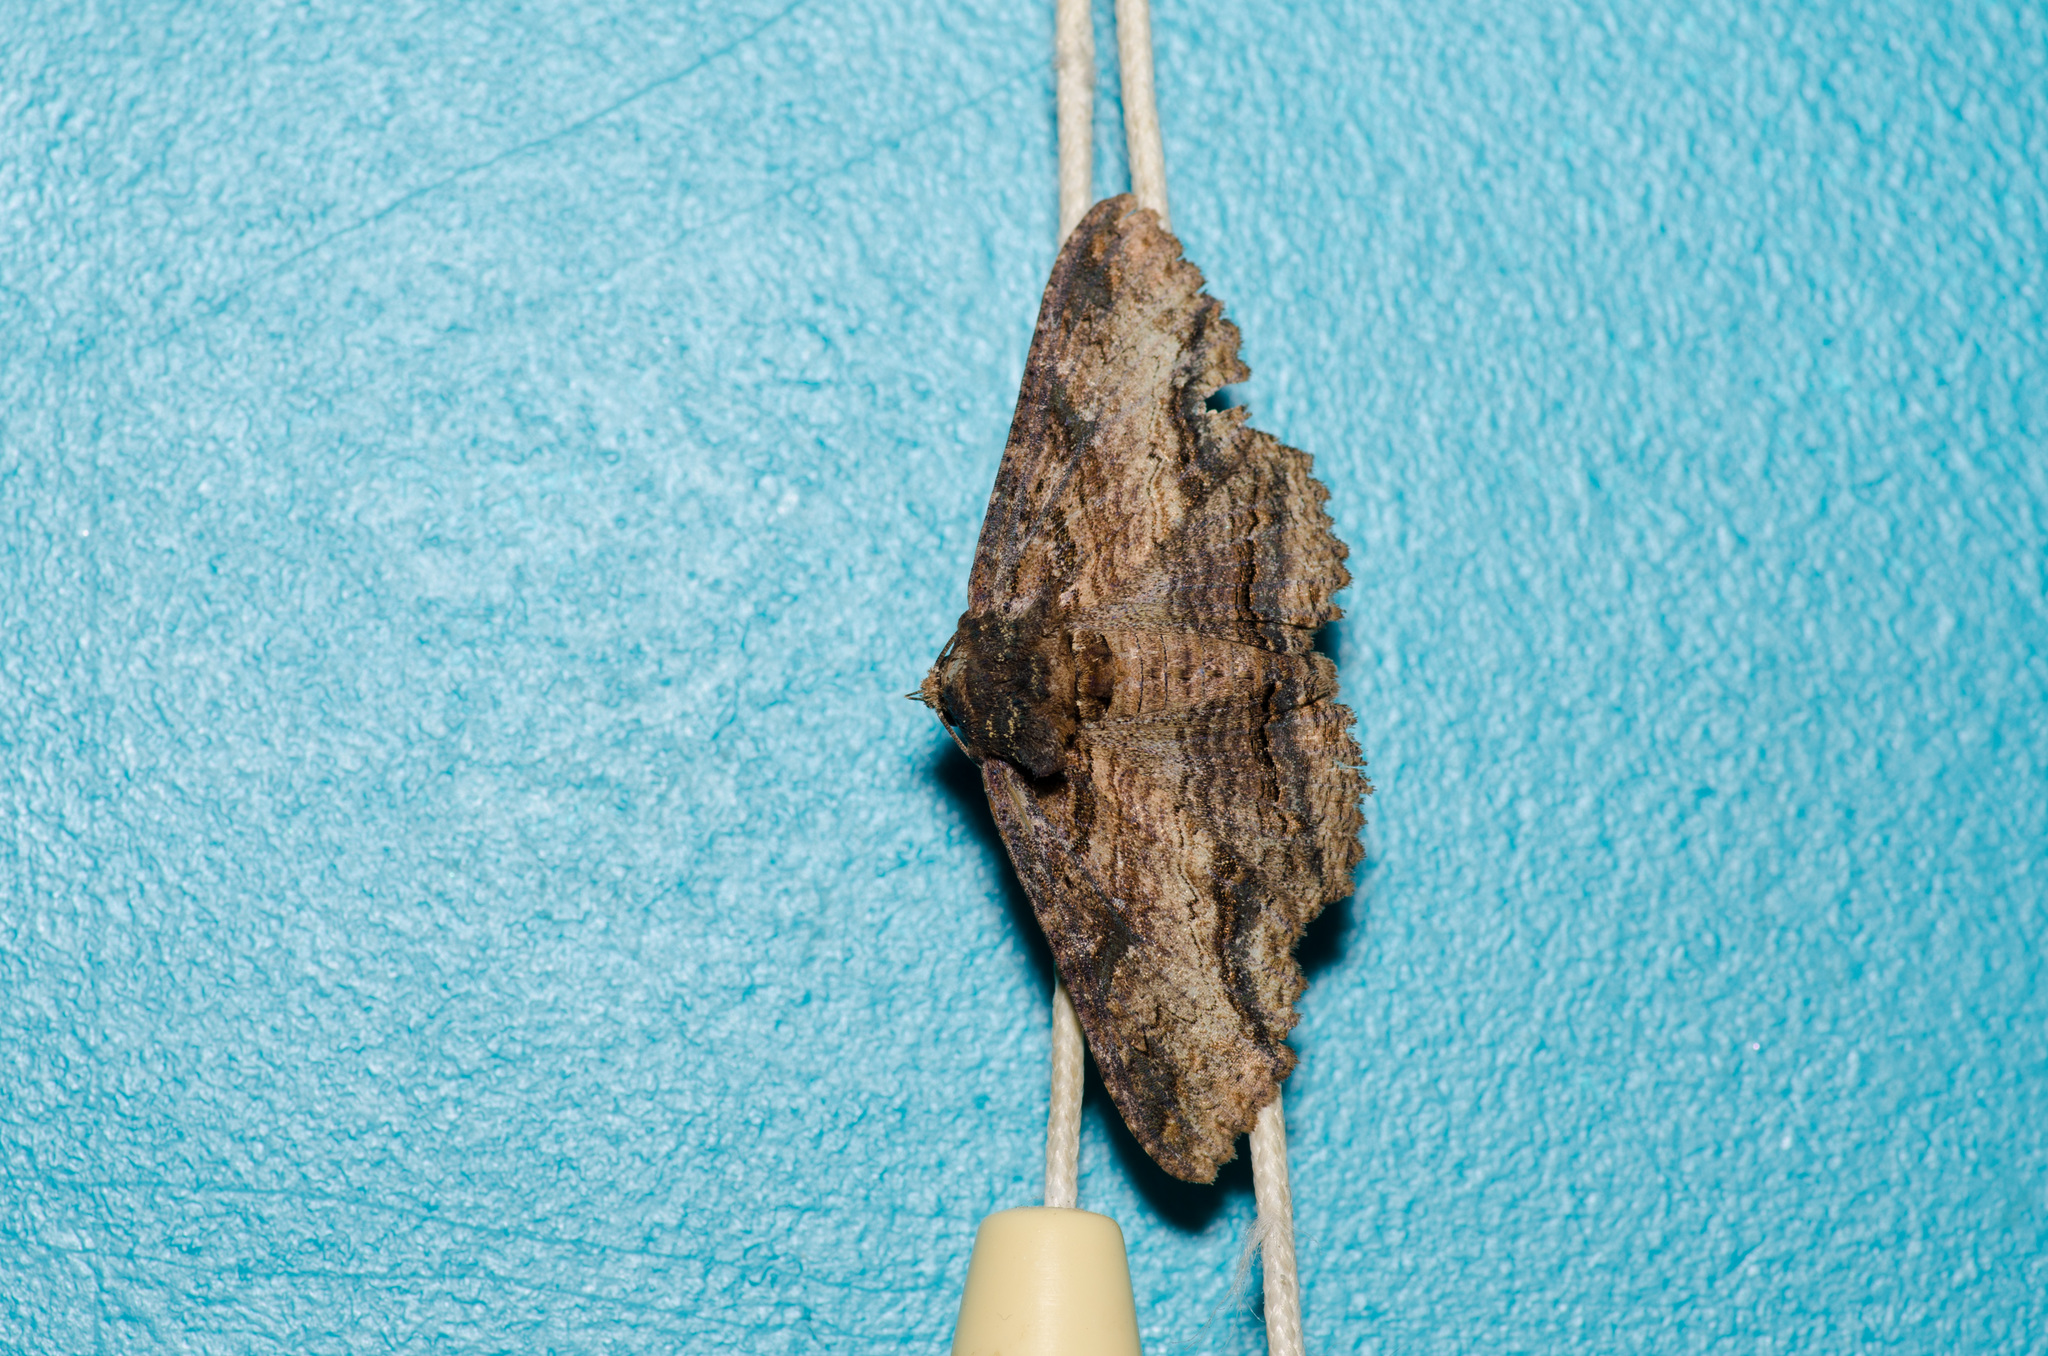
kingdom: Animalia
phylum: Arthropoda
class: Insecta
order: Lepidoptera
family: Erebidae
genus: Zale
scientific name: Zale lunata
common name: Lunate zale moth
